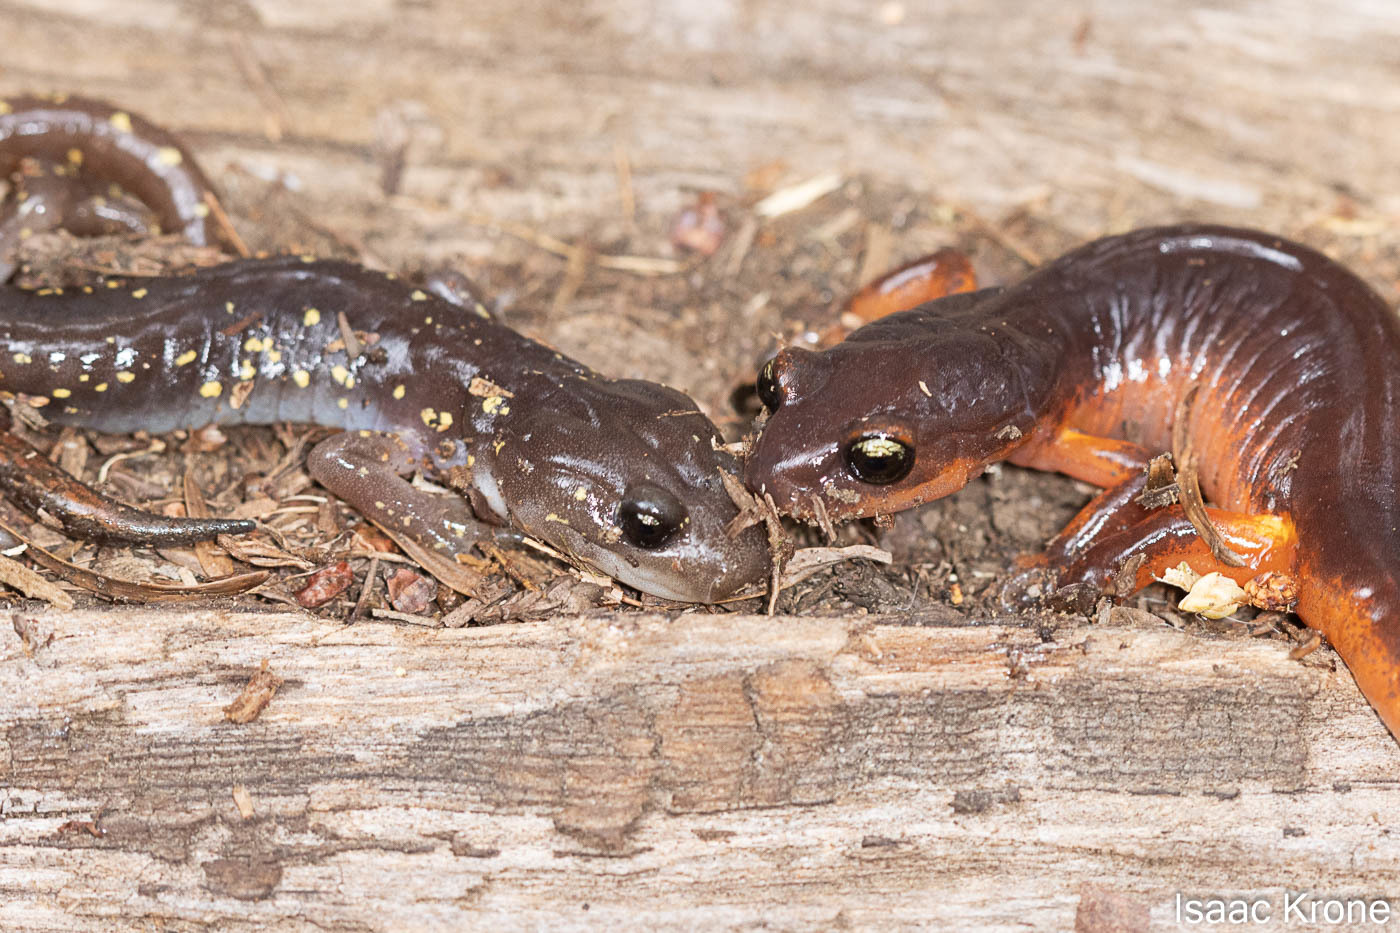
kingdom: Animalia
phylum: Chordata
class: Amphibia
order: Caudata
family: Plethodontidae
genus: Ensatina
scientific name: Ensatina eschscholtzii
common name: Ensatina
